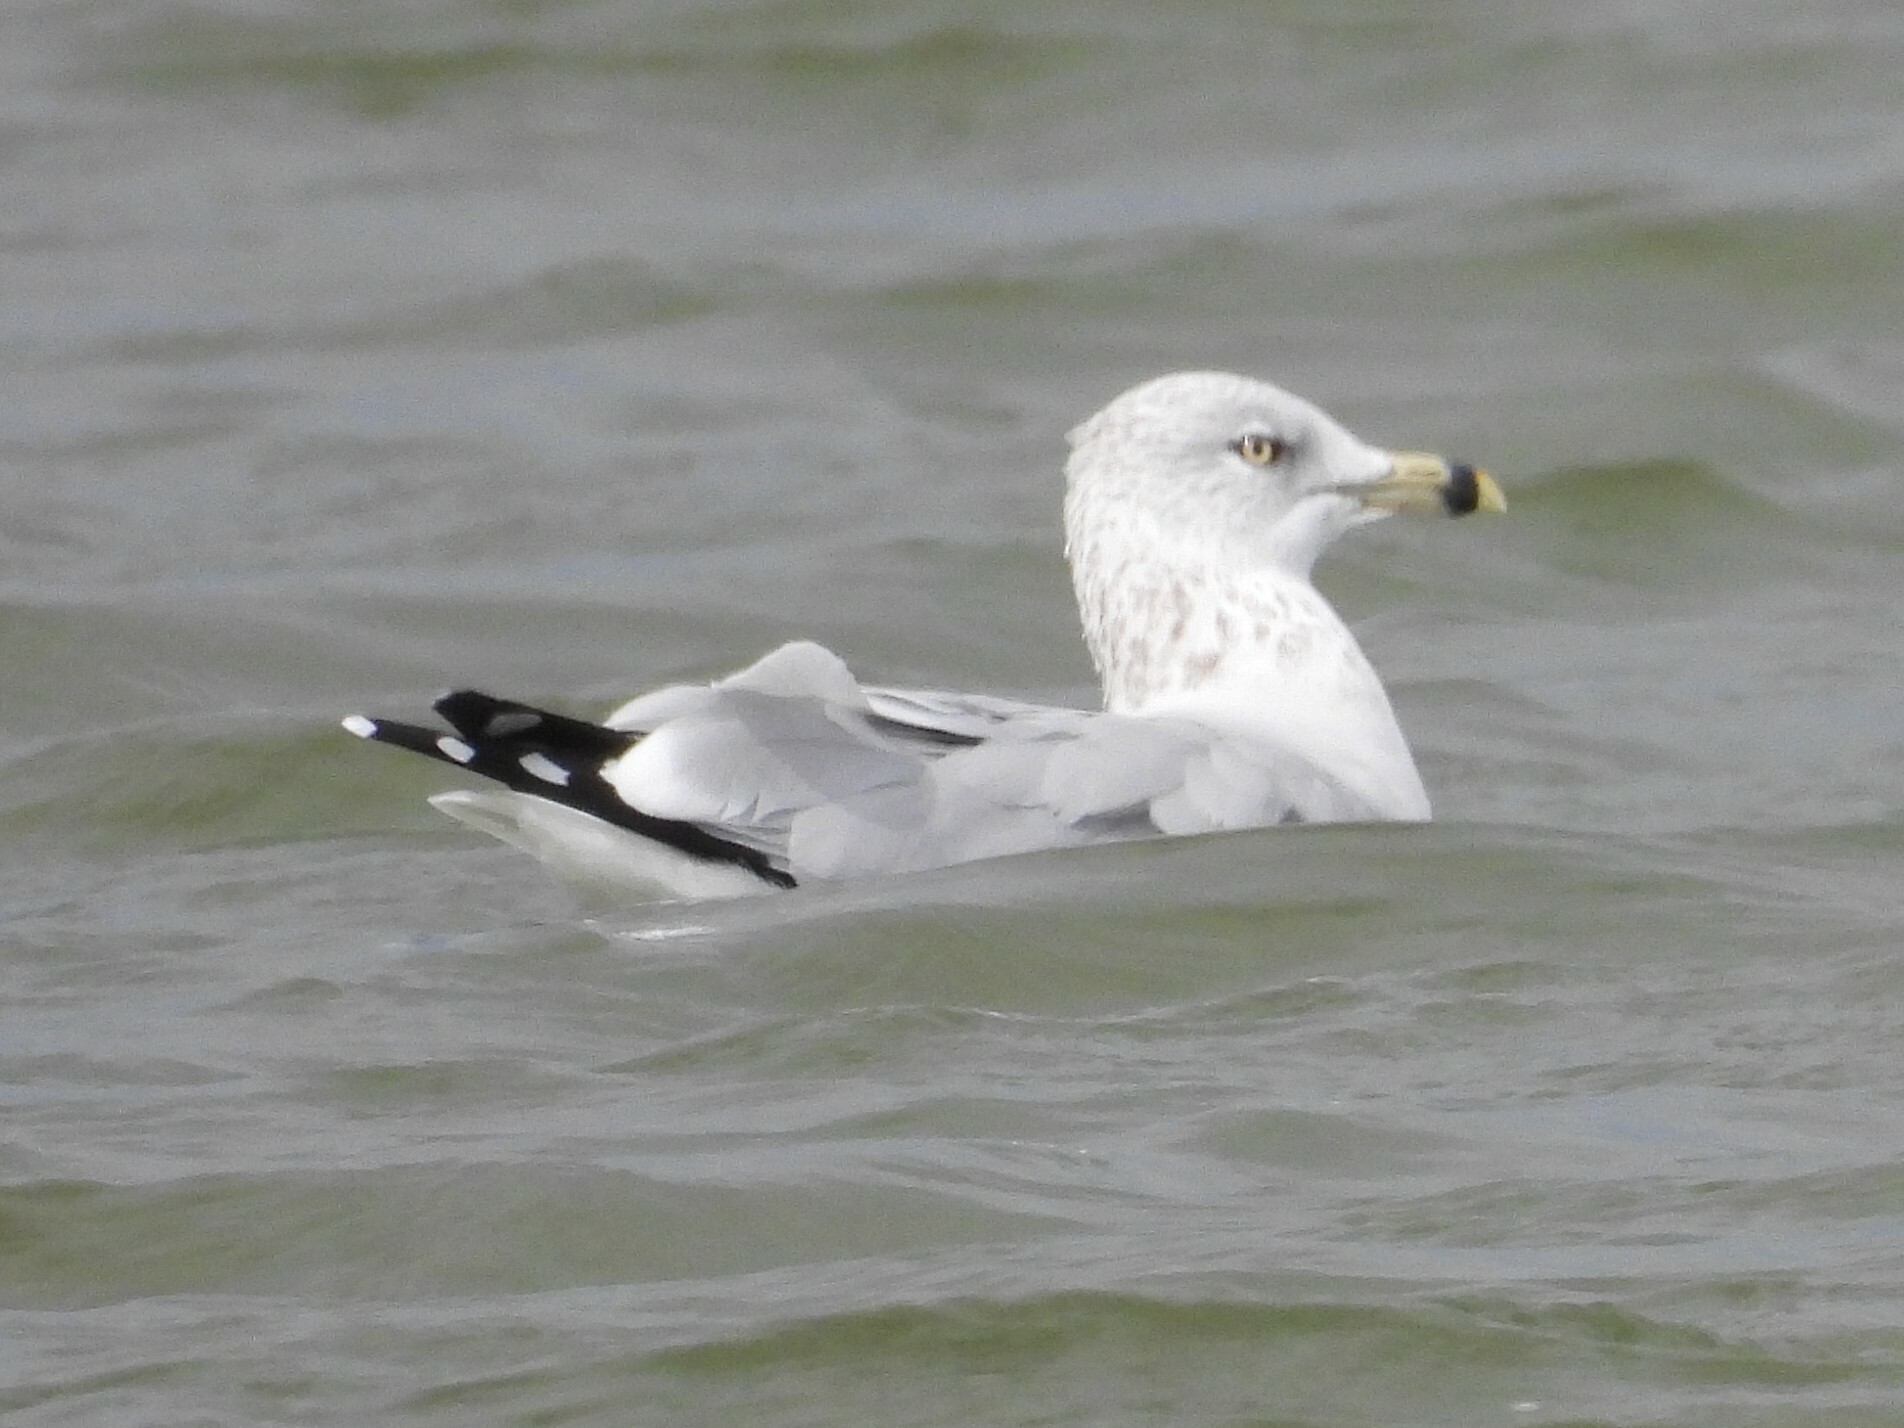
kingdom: Animalia
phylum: Chordata
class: Aves
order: Charadriiformes
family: Laridae
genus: Larus
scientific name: Larus delawarensis
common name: Ring-billed gull
